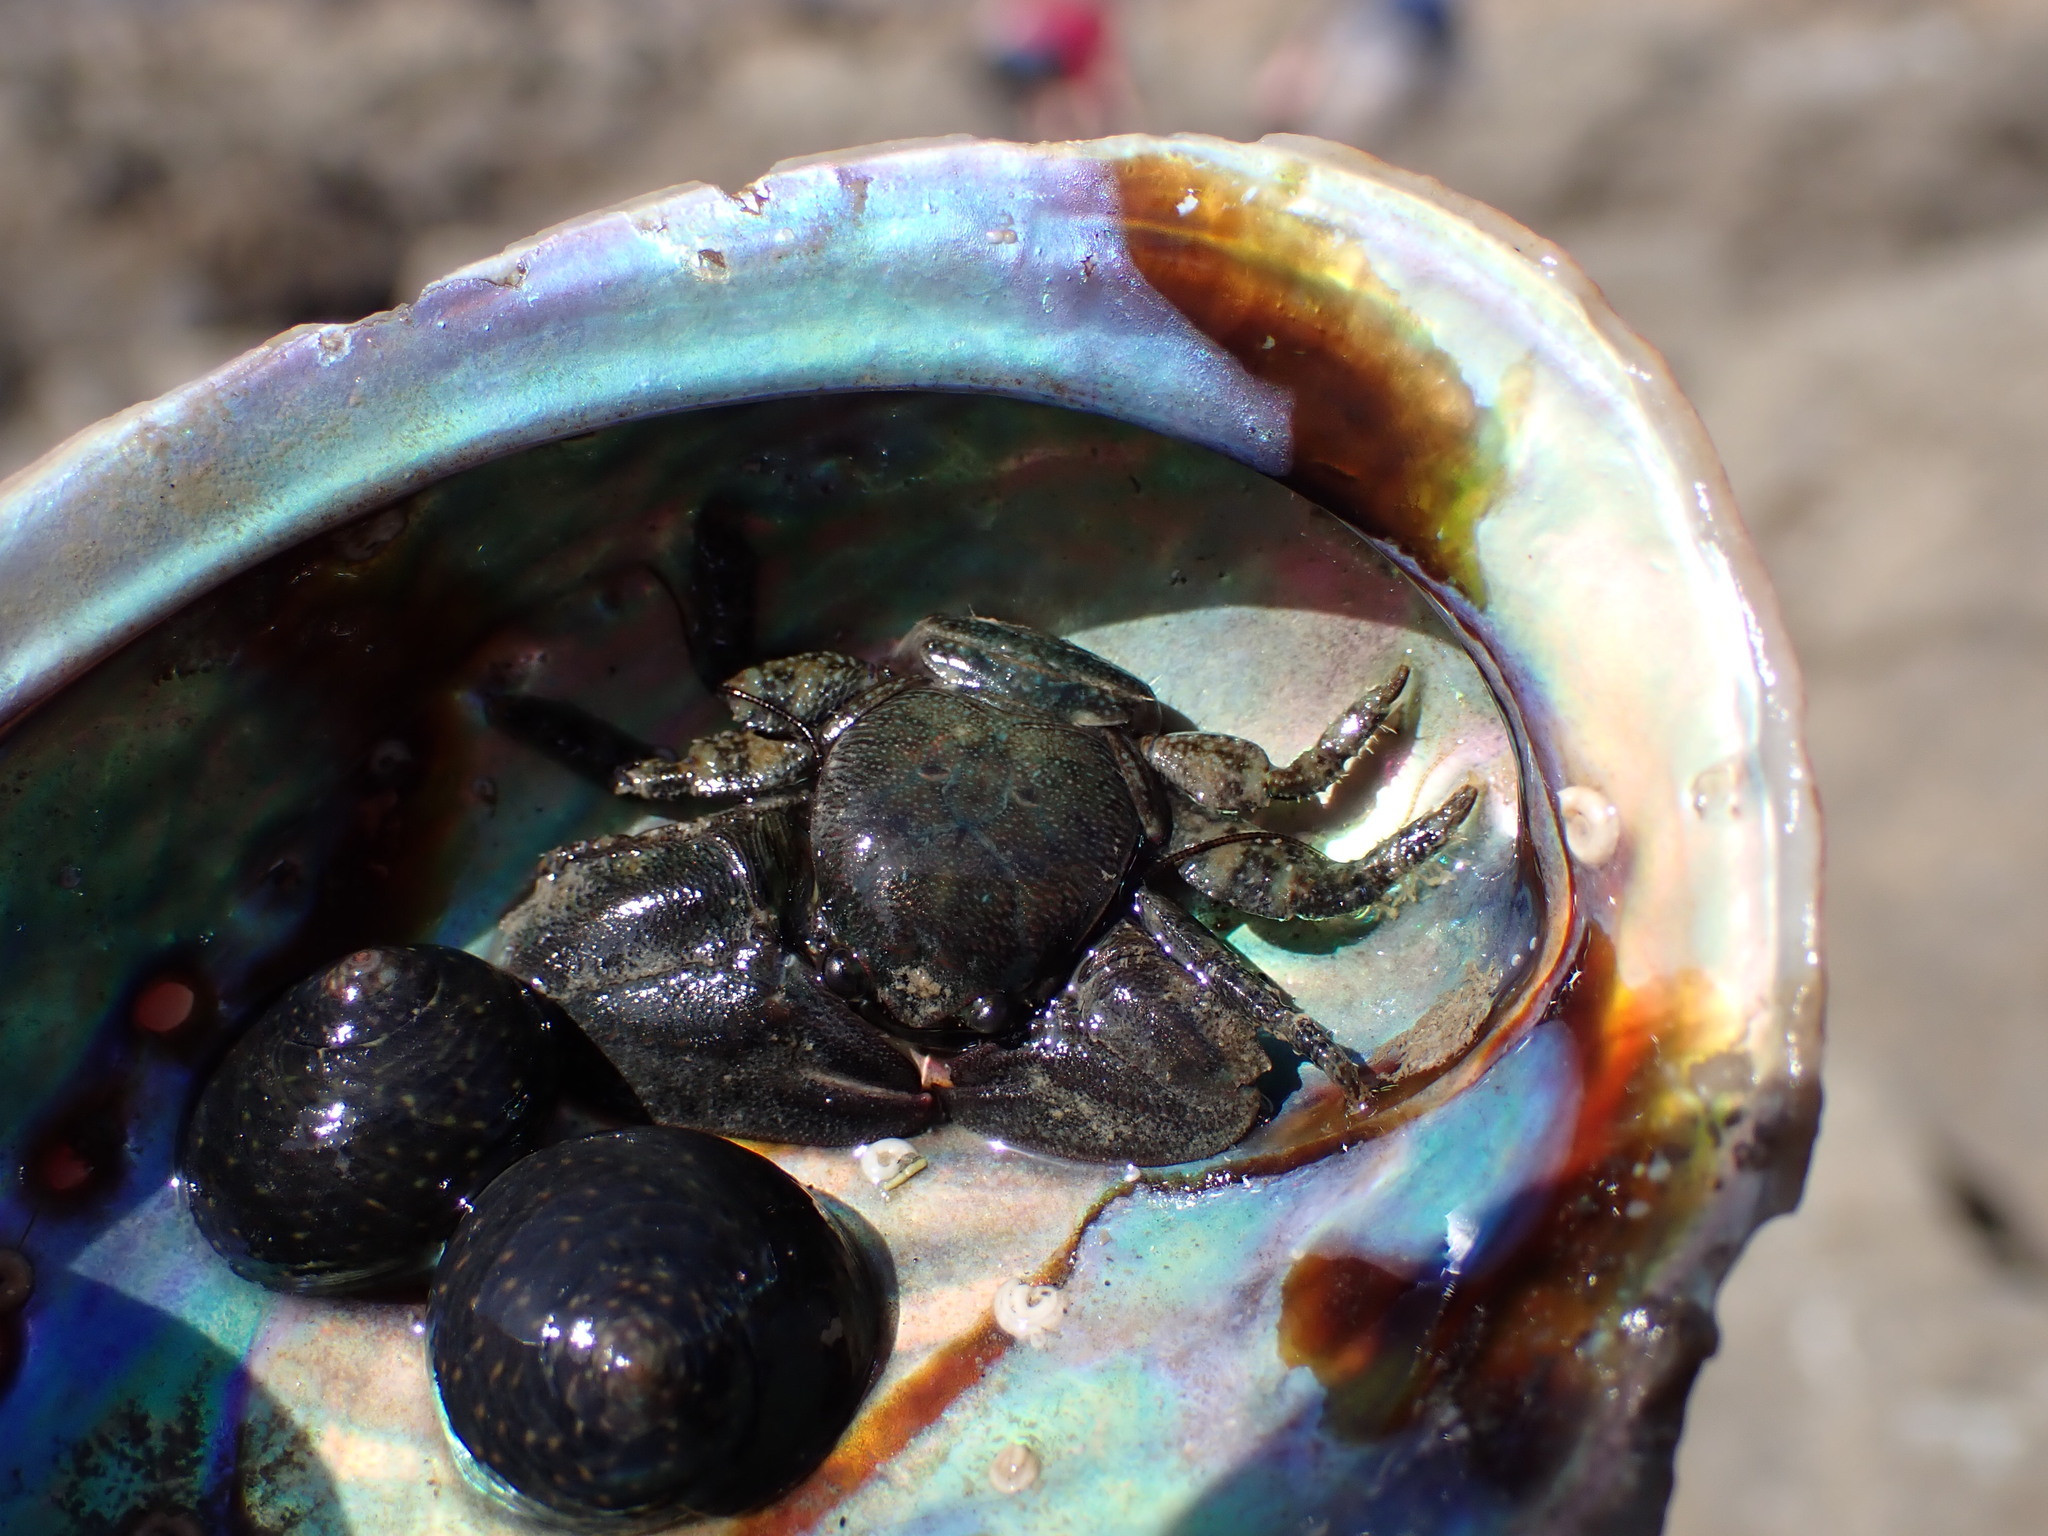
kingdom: Animalia
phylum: Arthropoda
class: Malacostraca
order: Decapoda
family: Porcellanidae
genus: Petrolisthes
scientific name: Petrolisthes elongatus
